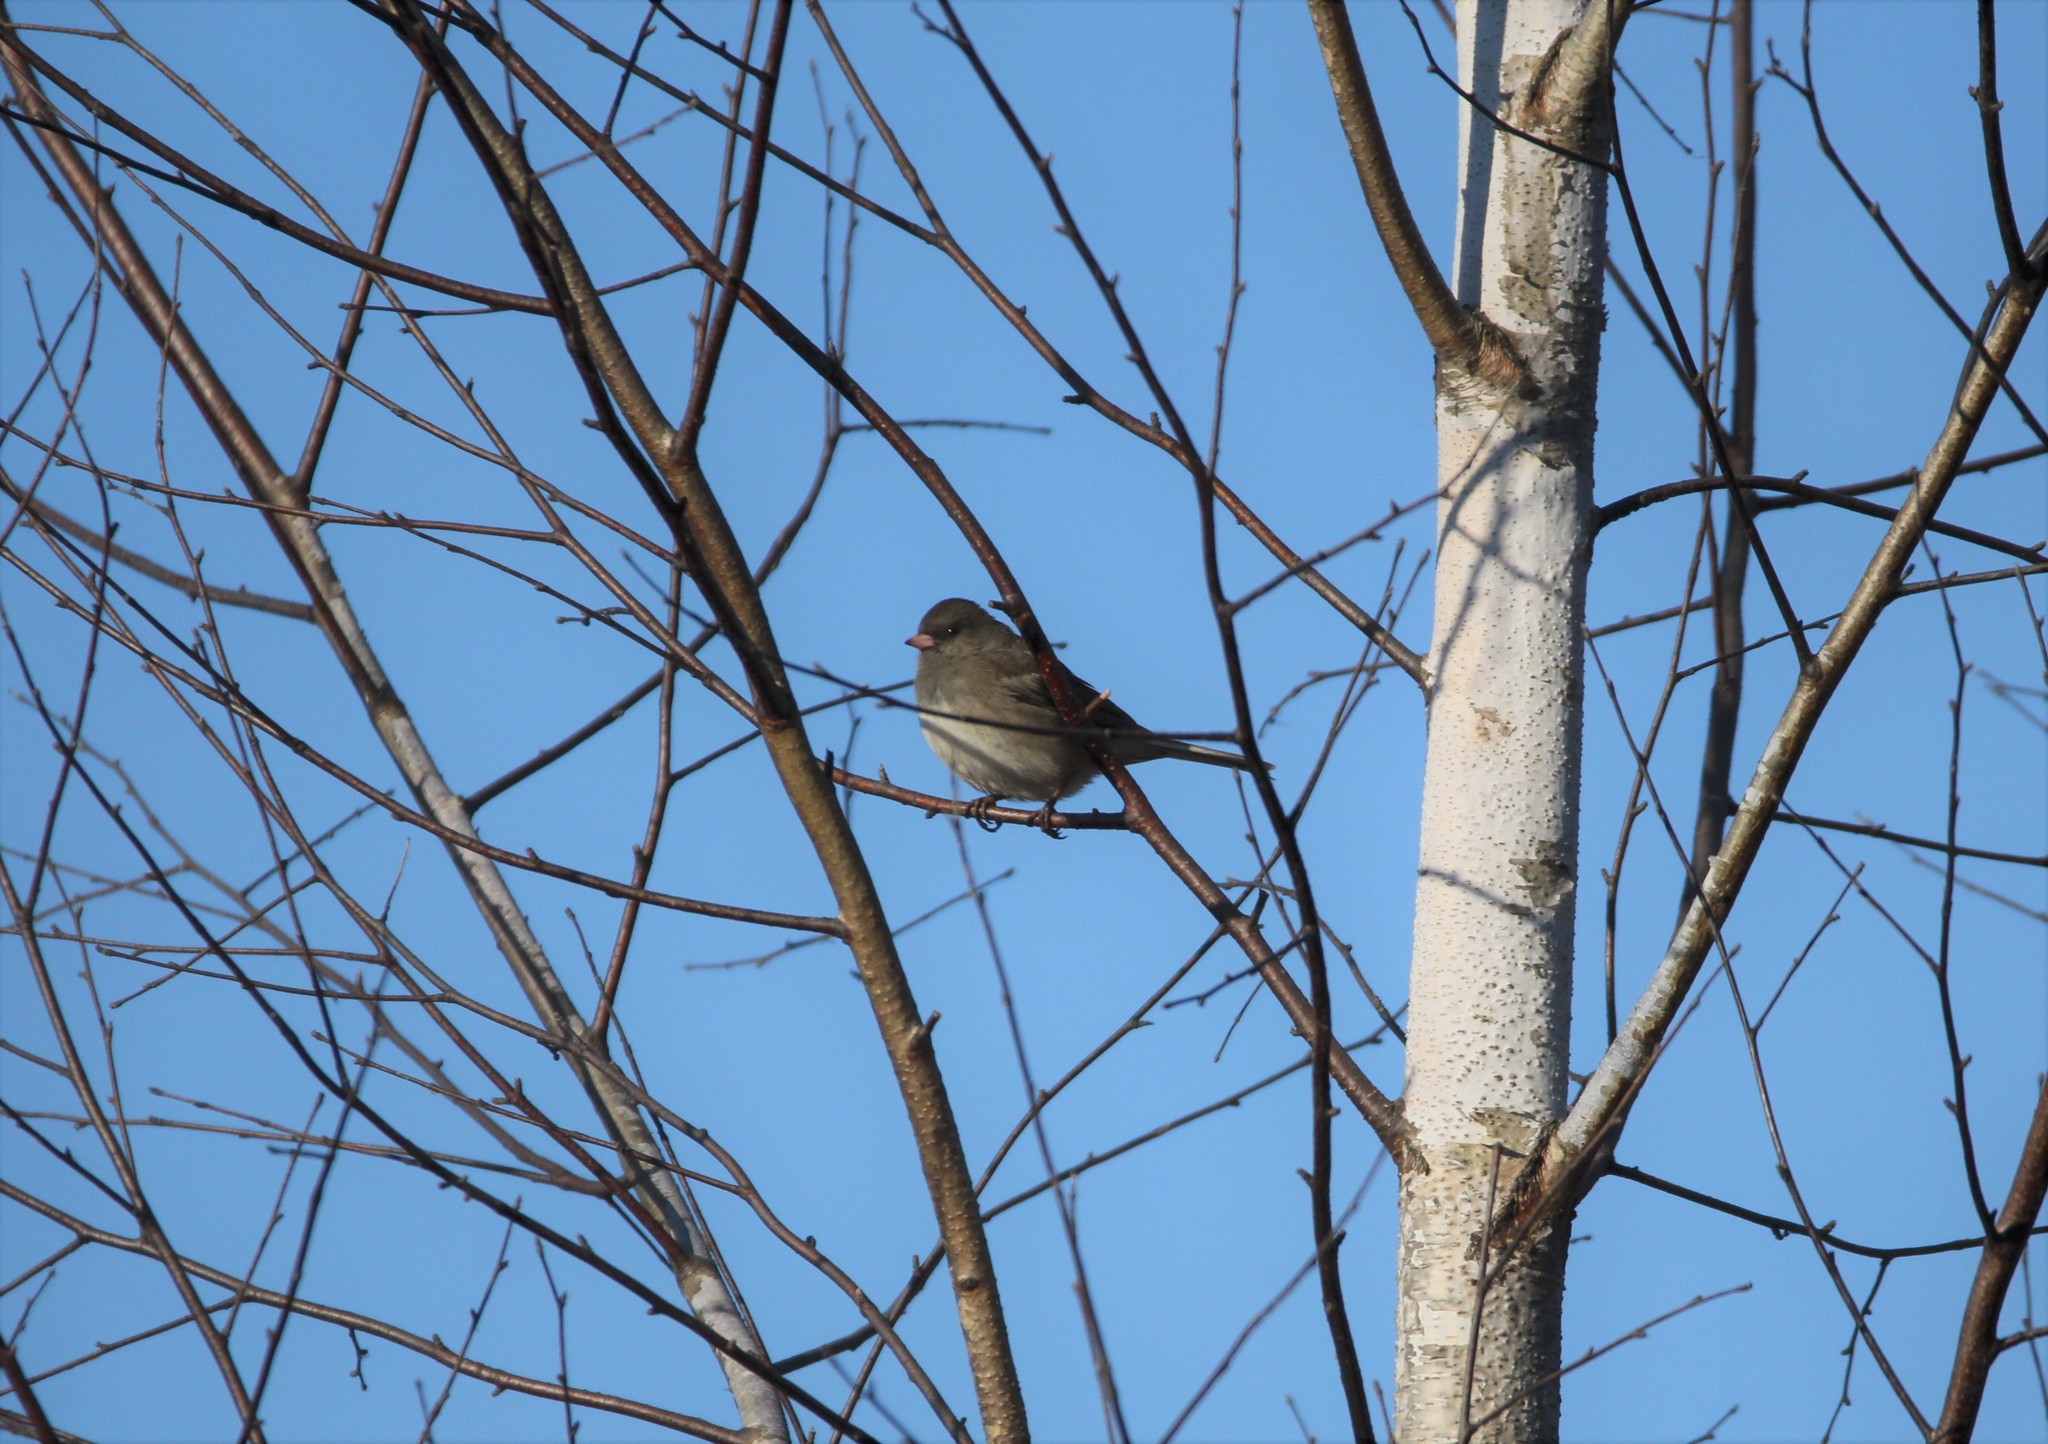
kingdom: Animalia
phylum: Chordata
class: Aves
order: Passeriformes
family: Passerellidae
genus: Junco
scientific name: Junco hyemalis
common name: Dark-eyed junco
